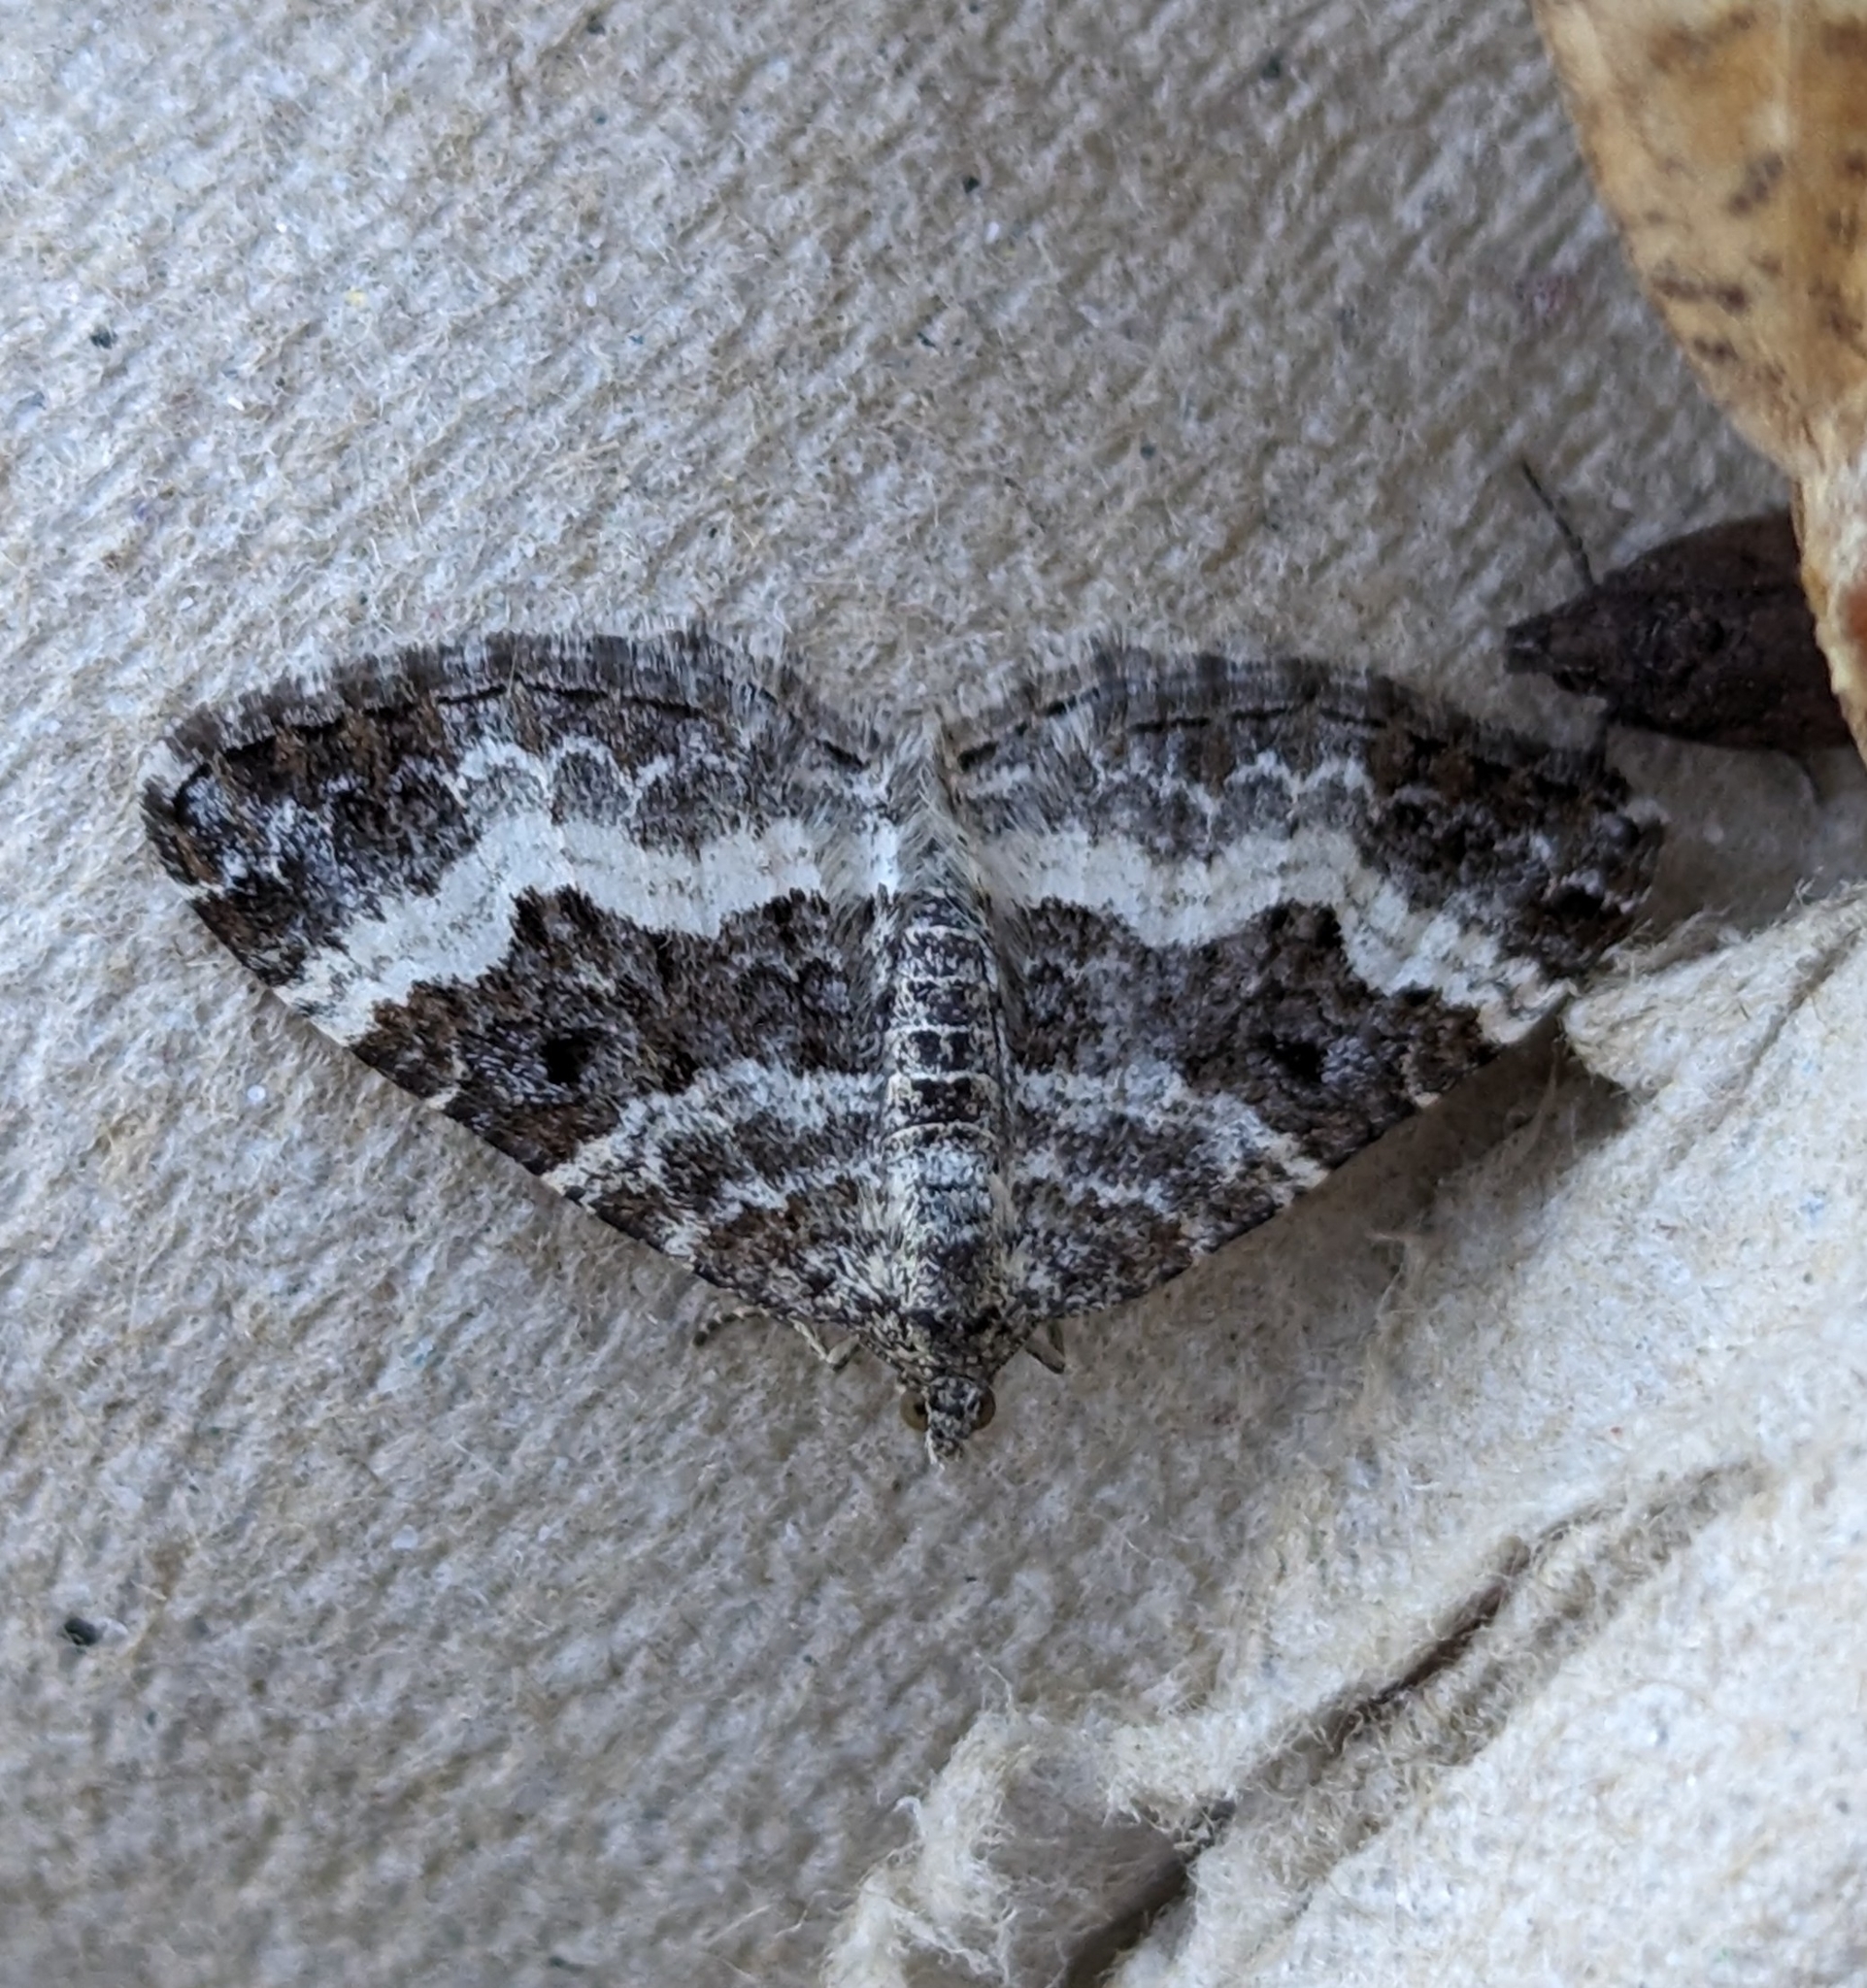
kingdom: Animalia
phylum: Arthropoda
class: Insecta
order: Lepidoptera
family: Geometridae
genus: Epirrhoe
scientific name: Epirrhoe alternata
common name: Common carpet
